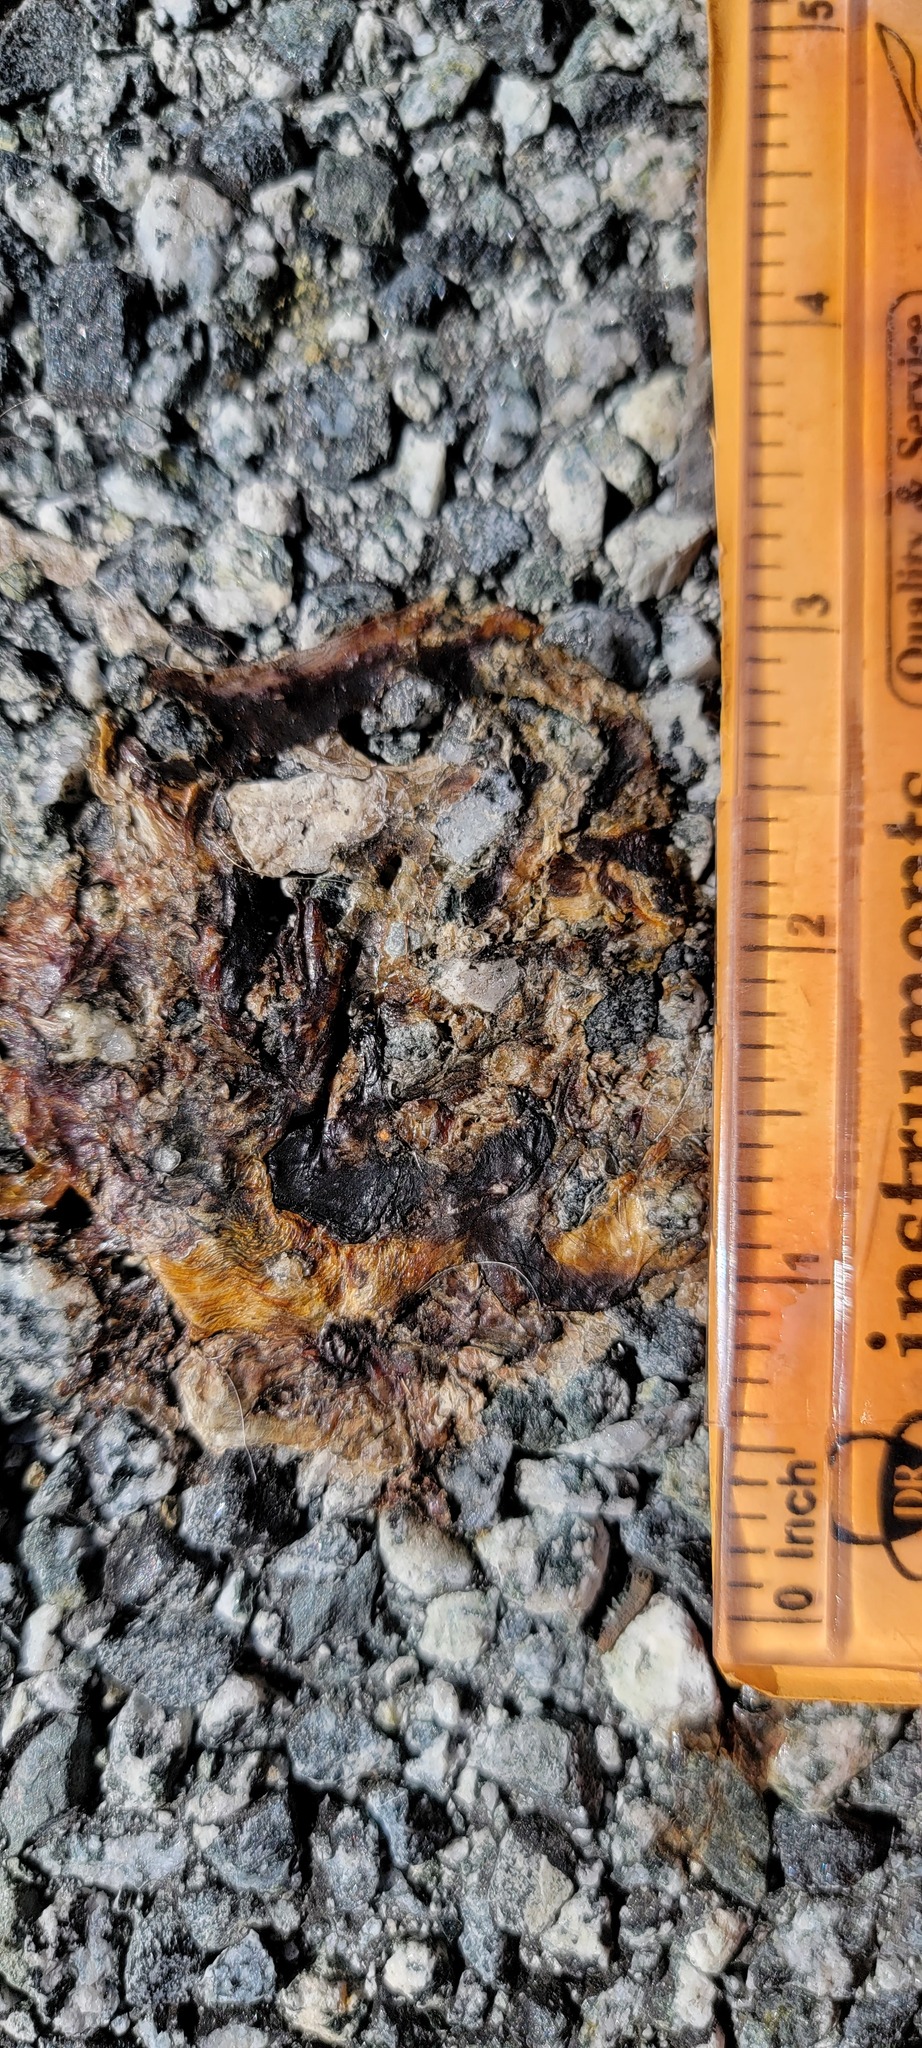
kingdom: Animalia
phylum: Chordata
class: Amphibia
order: Caudata
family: Salamandridae
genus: Taricha
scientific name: Taricha
